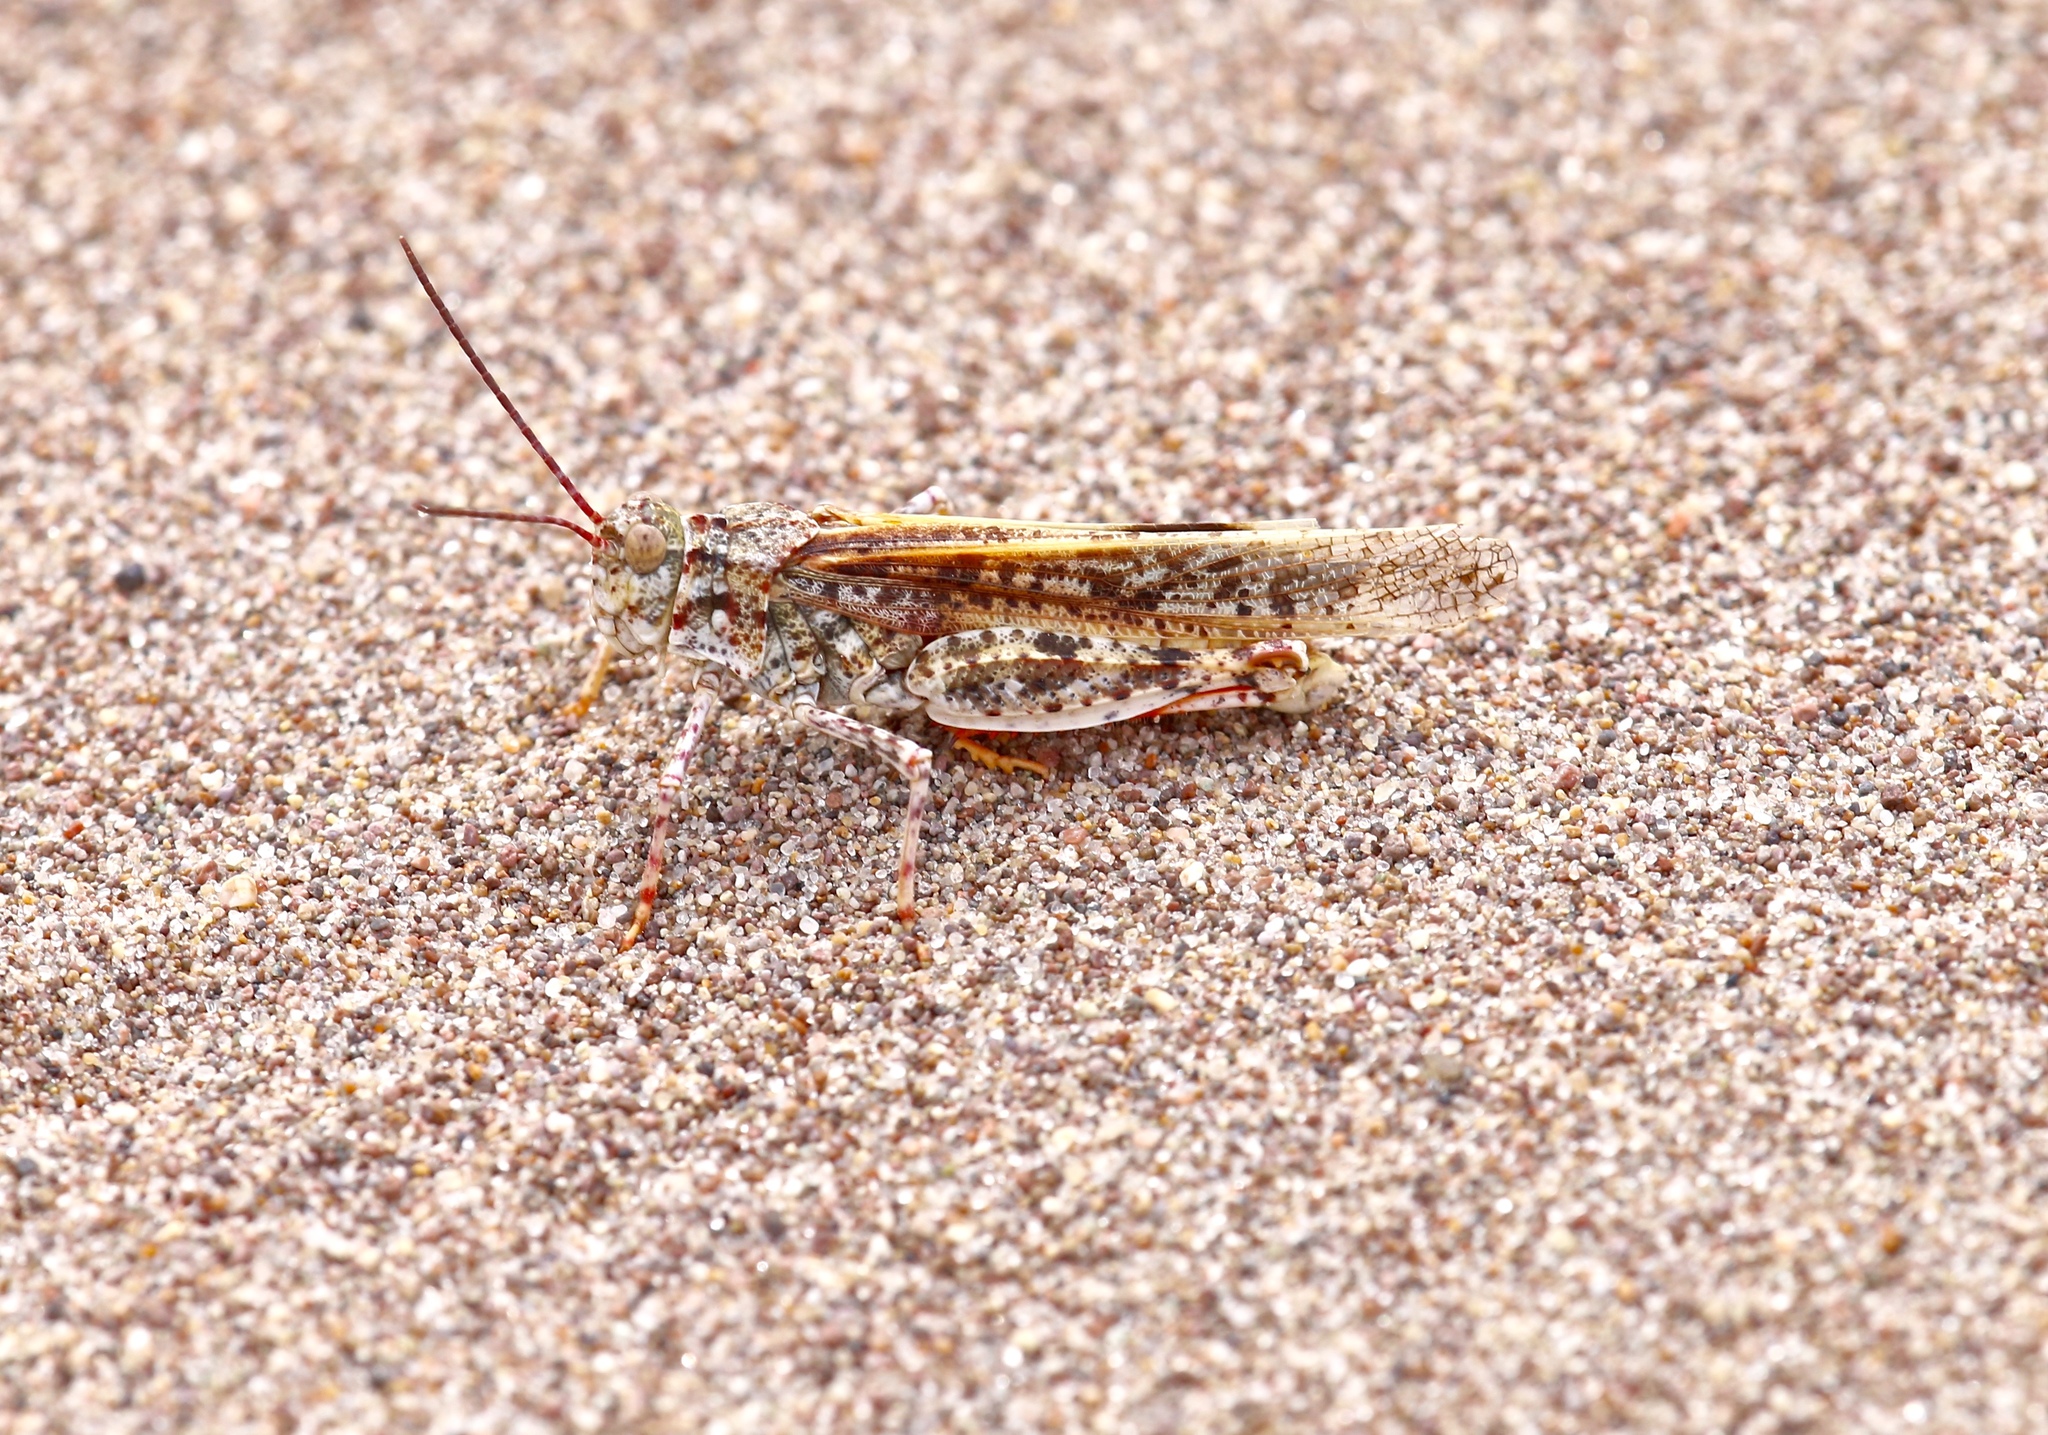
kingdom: Animalia
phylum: Arthropoda
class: Insecta
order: Orthoptera
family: Acrididae
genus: Trimerotropis
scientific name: Trimerotropis barnumi
